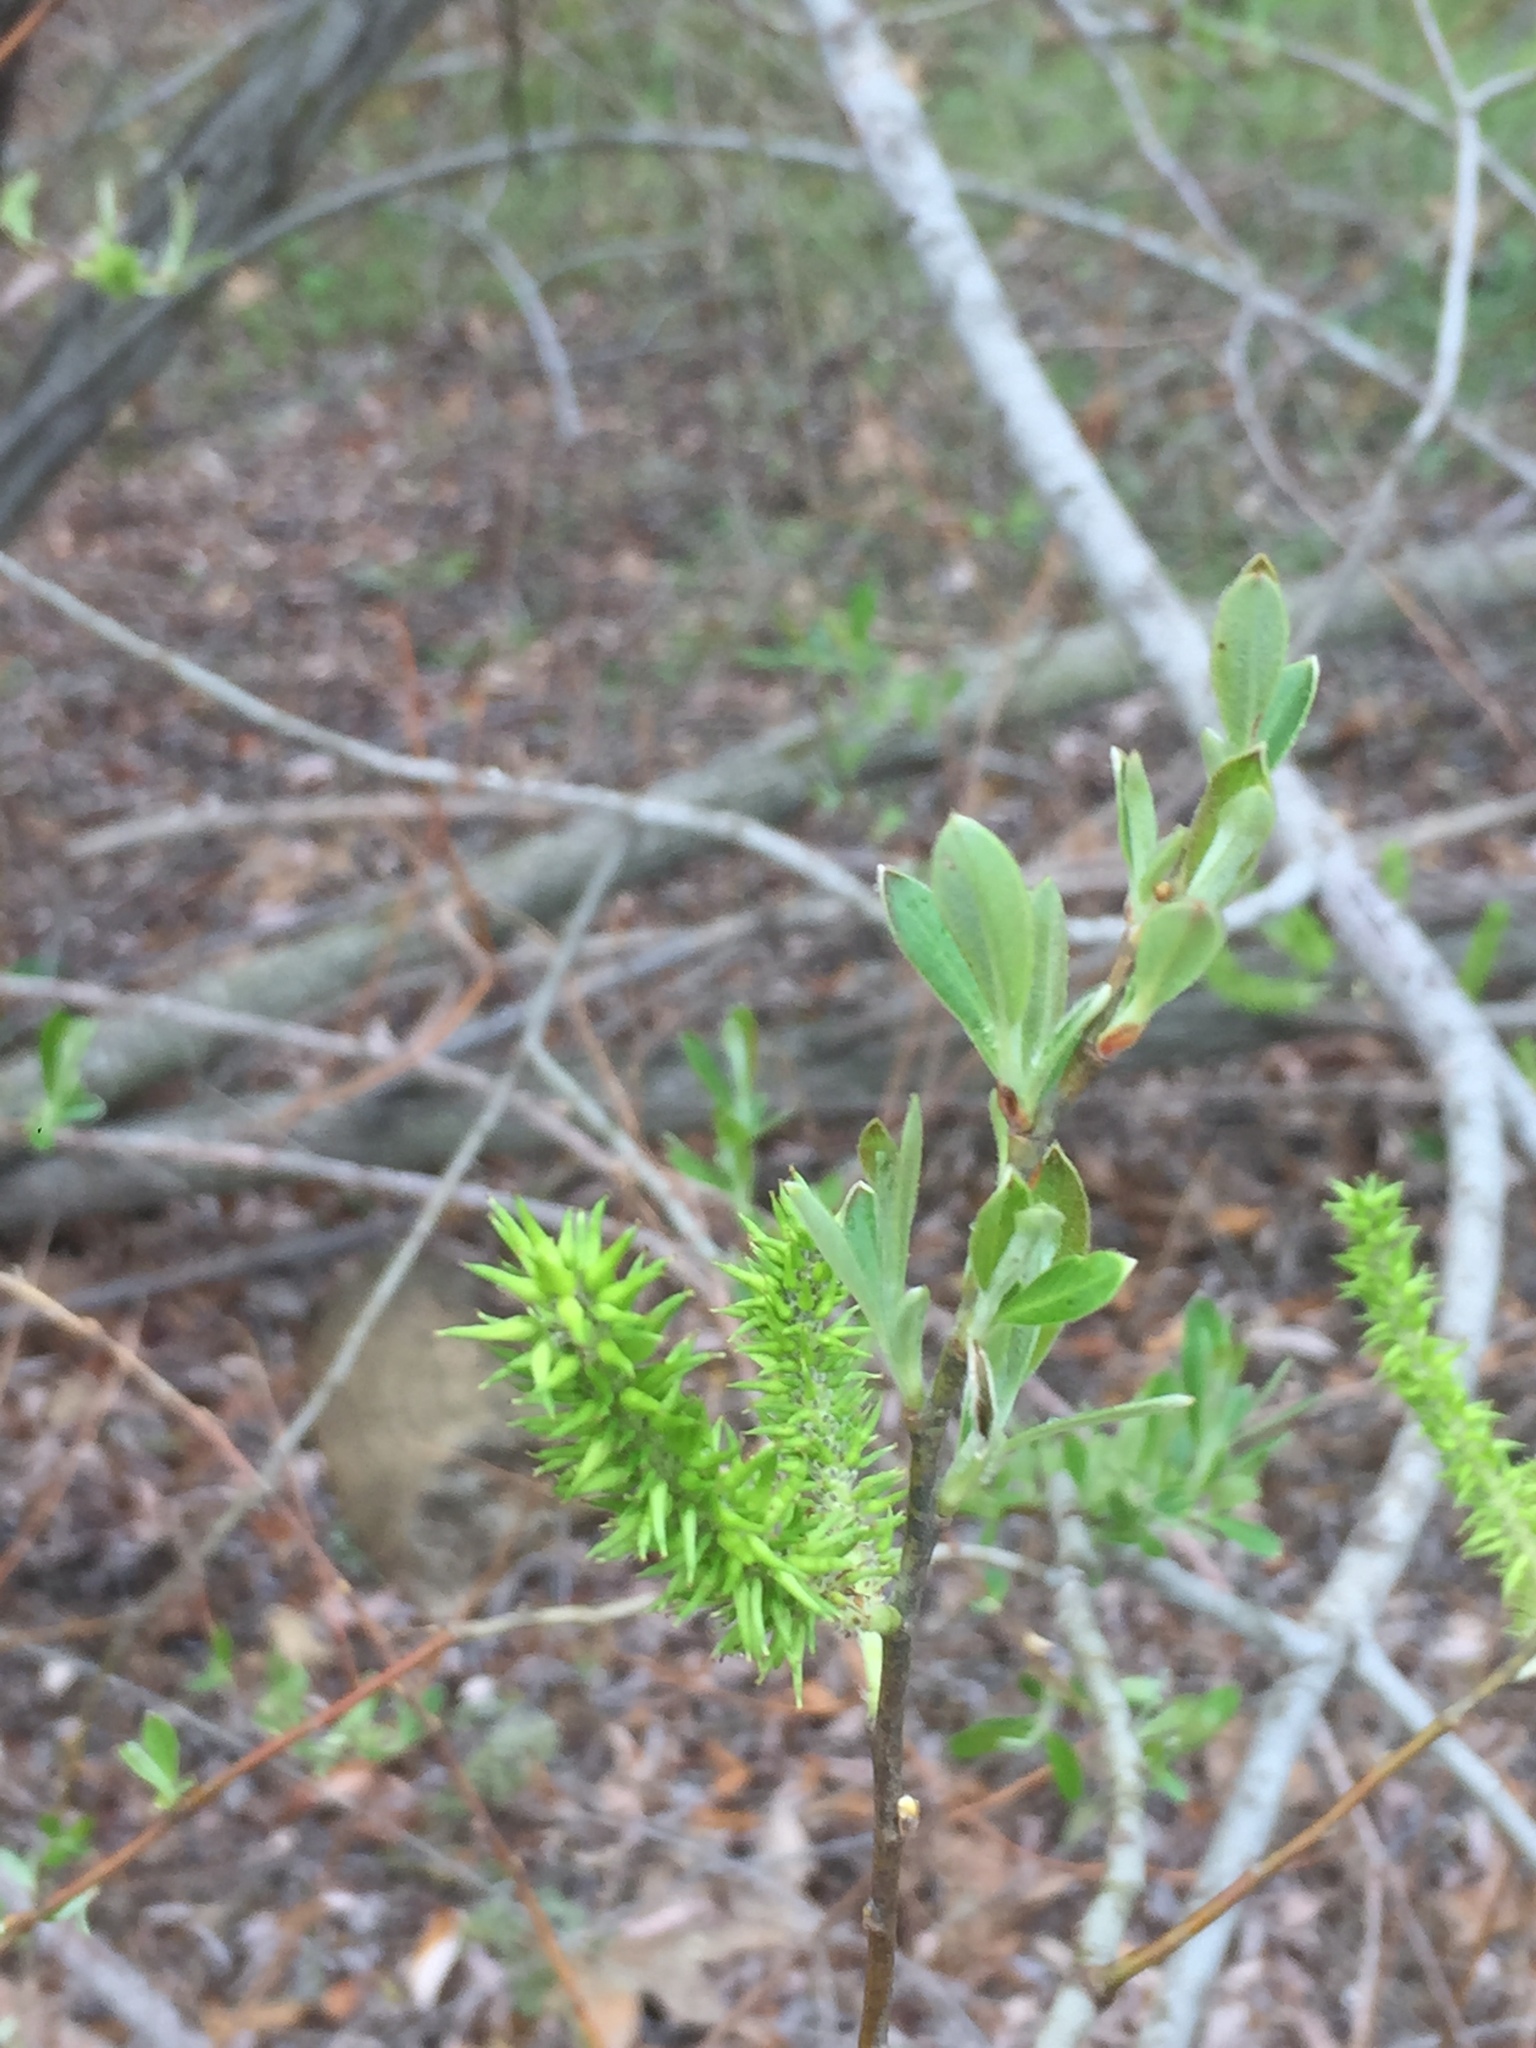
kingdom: Plantae
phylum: Tracheophyta
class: Magnoliopsida
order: Malpighiales
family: Salicaceae
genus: Salix
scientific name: Salix lasiolepis
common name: Arroyo willow
